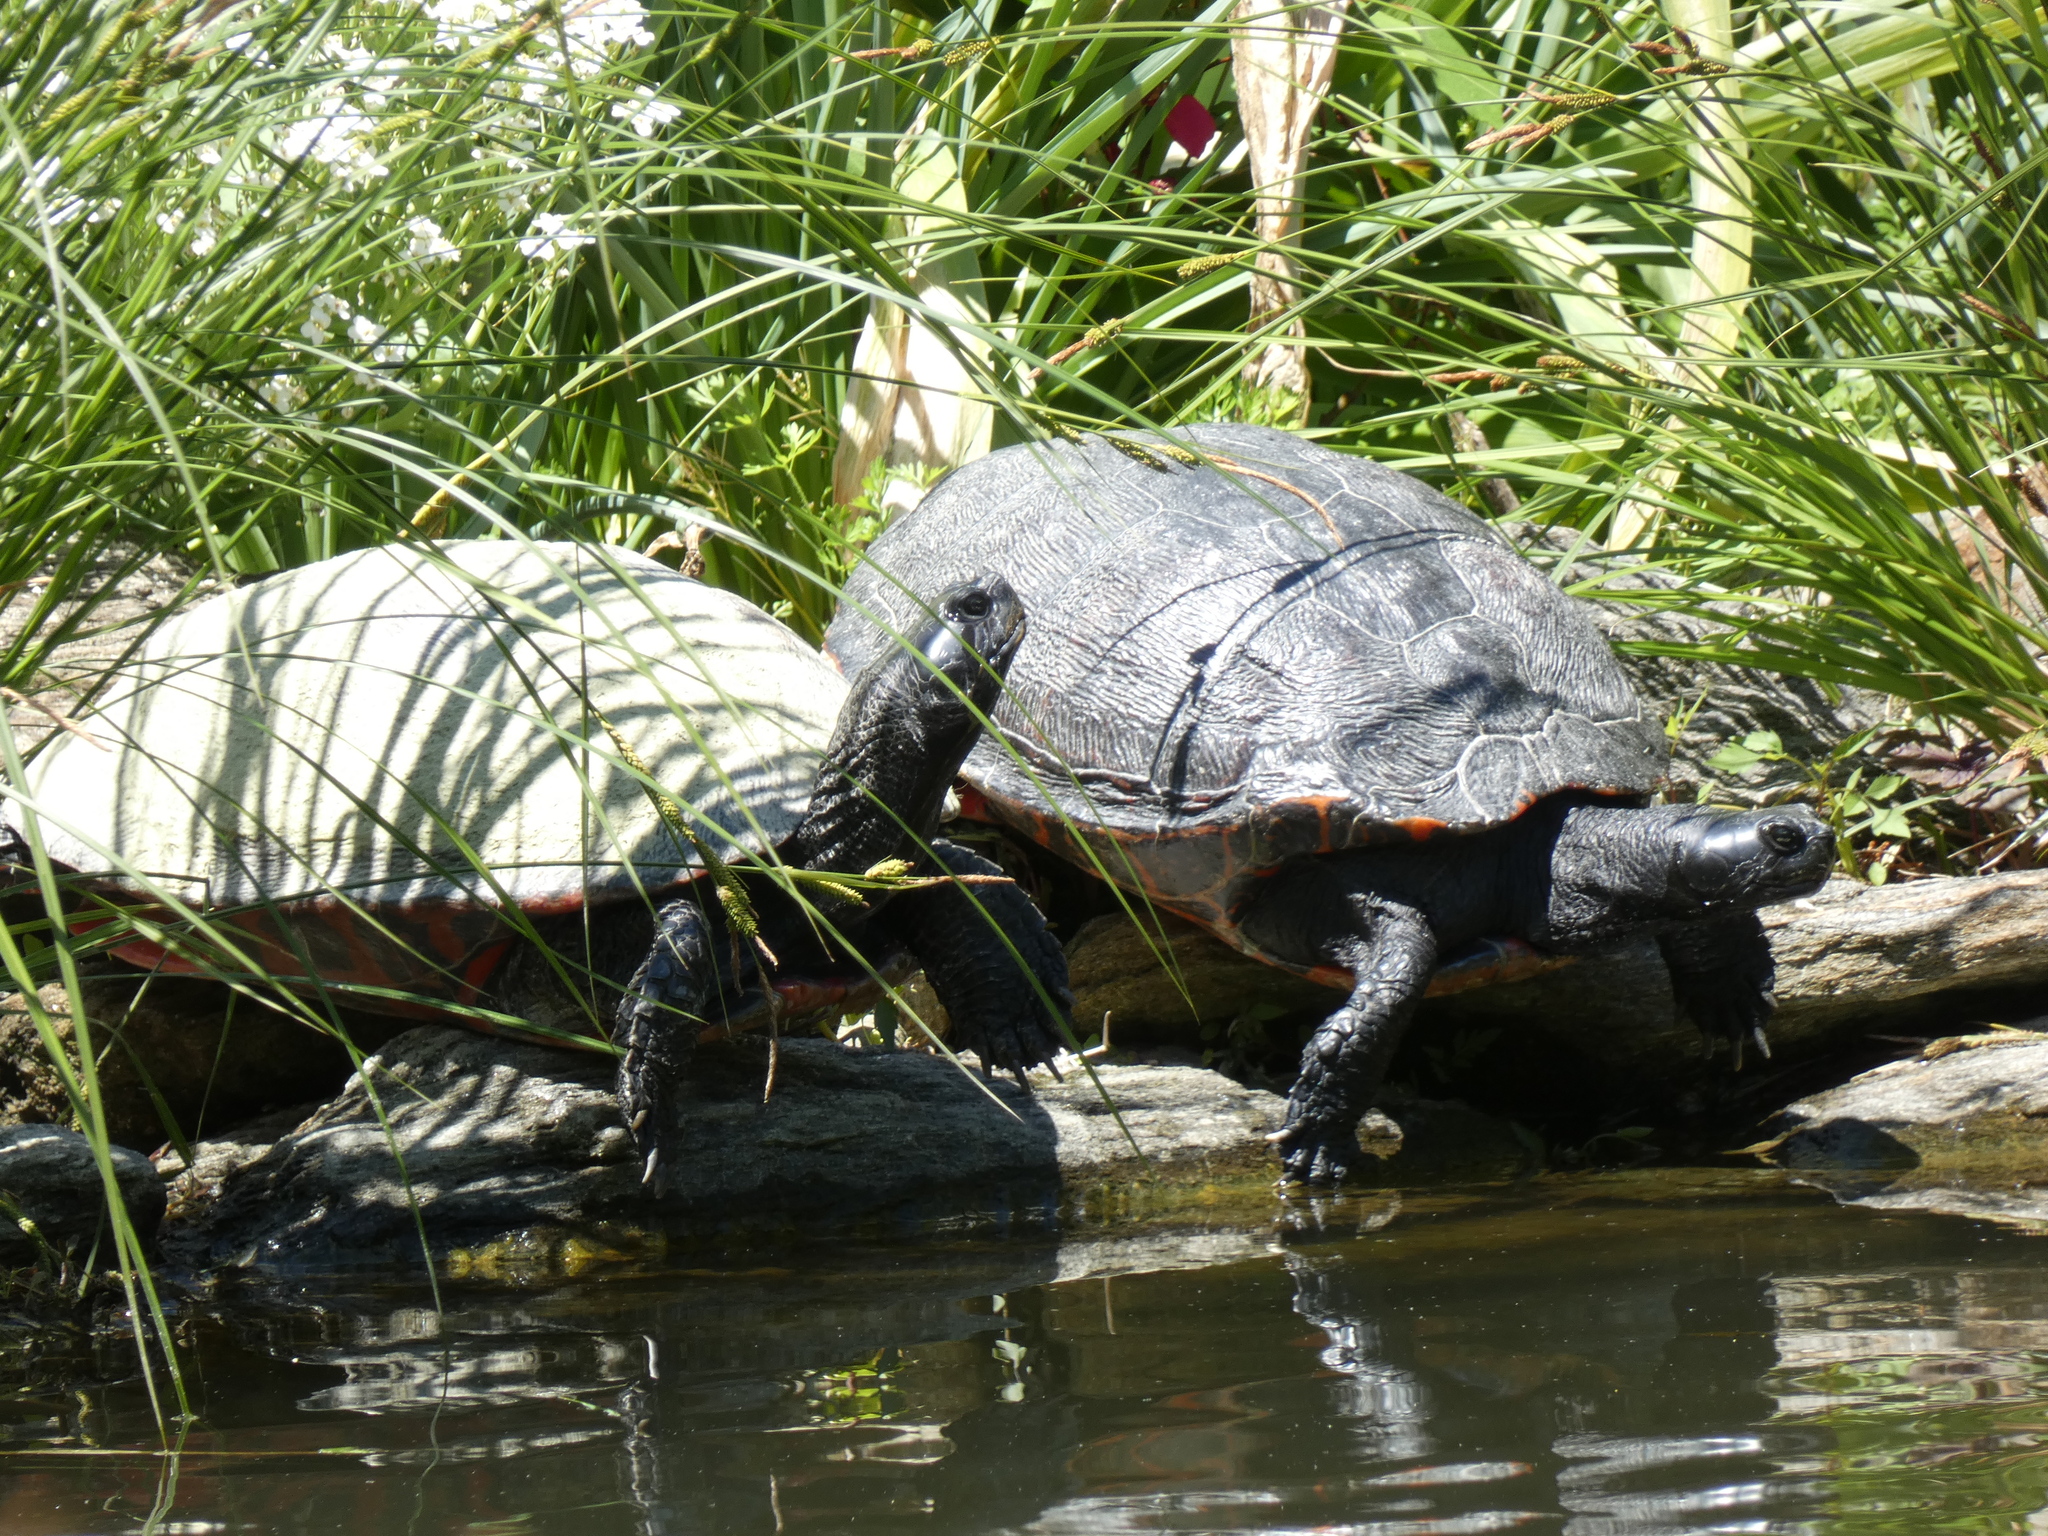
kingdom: Animalia
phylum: Chordata
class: Testudines
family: Emydidae
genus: Pseudemys
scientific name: Pseudemys rubriventris
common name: American red-bellied turtle
